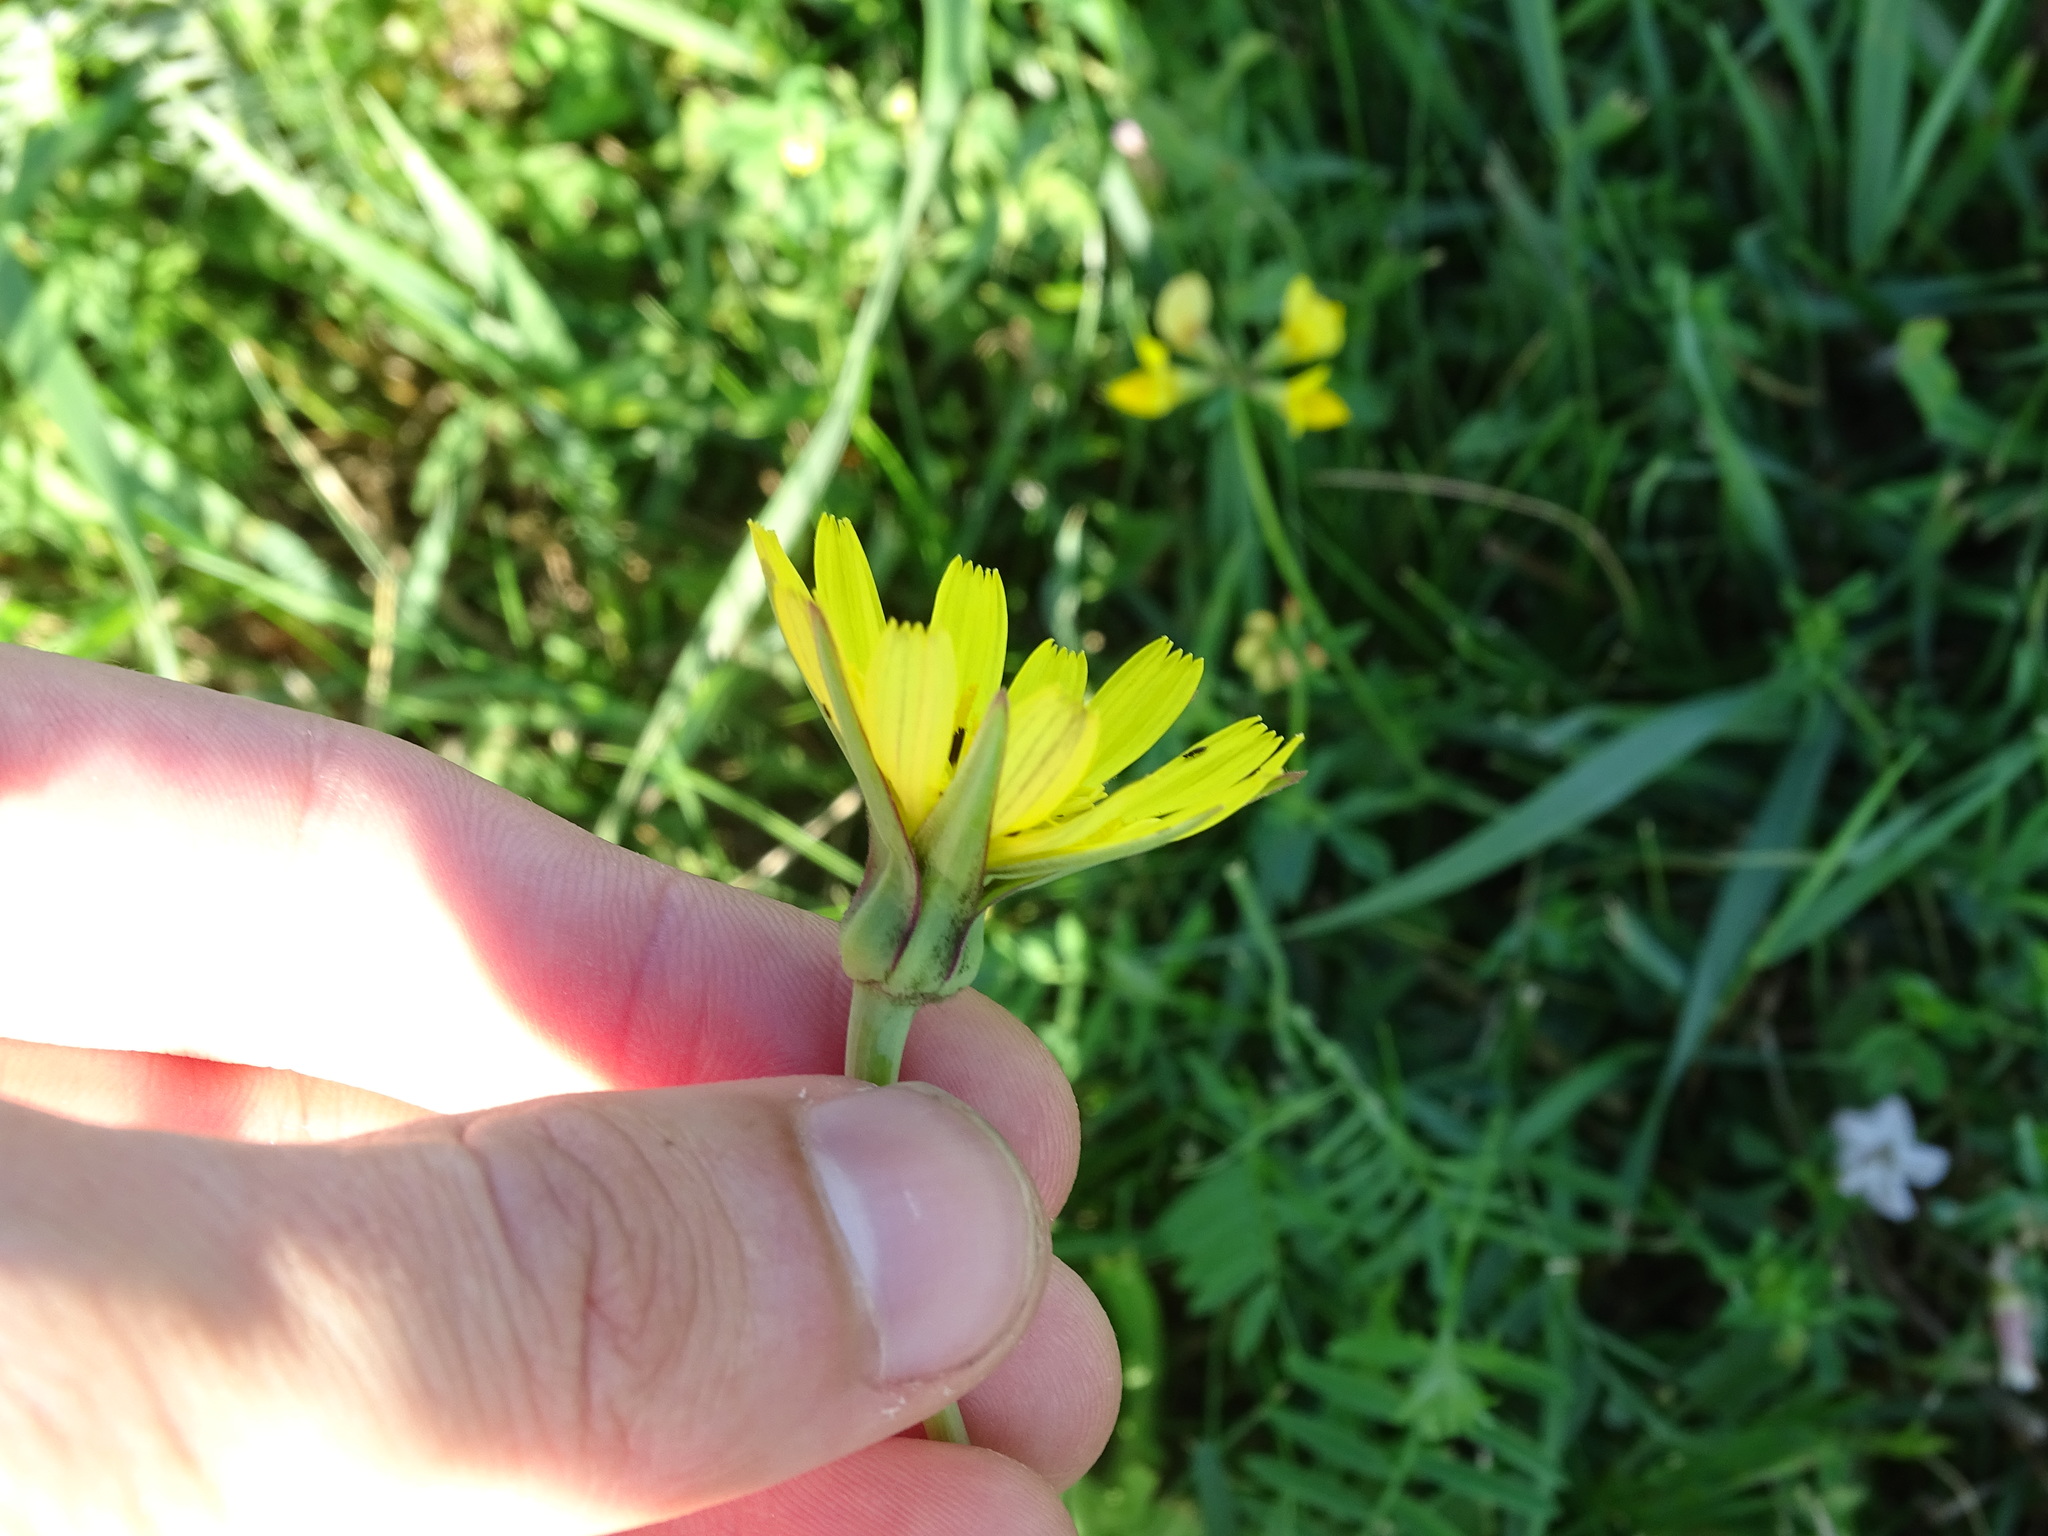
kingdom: Plantae
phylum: Tracheophyta
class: Magnoliopsida
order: Asterales
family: Asteraceae
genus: Tragopogon
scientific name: Tragopogon pratensis
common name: Goat's-beard
